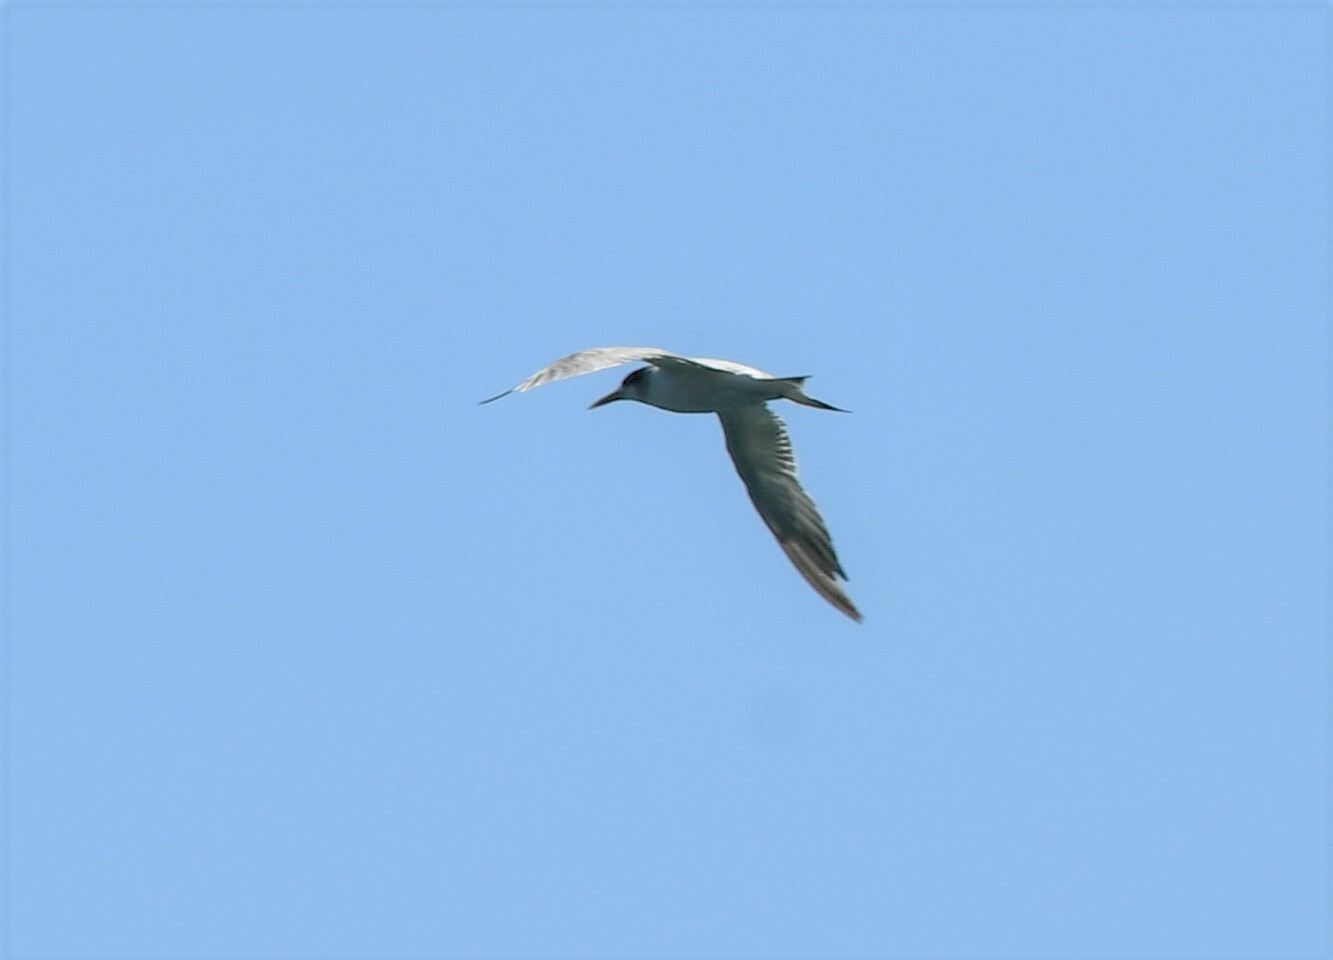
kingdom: Animalia
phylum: Chordata
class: Aves
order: Charadriiformes
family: Laridae
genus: Thalasseus
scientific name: Thalasseus bergii
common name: Greater crested tern
